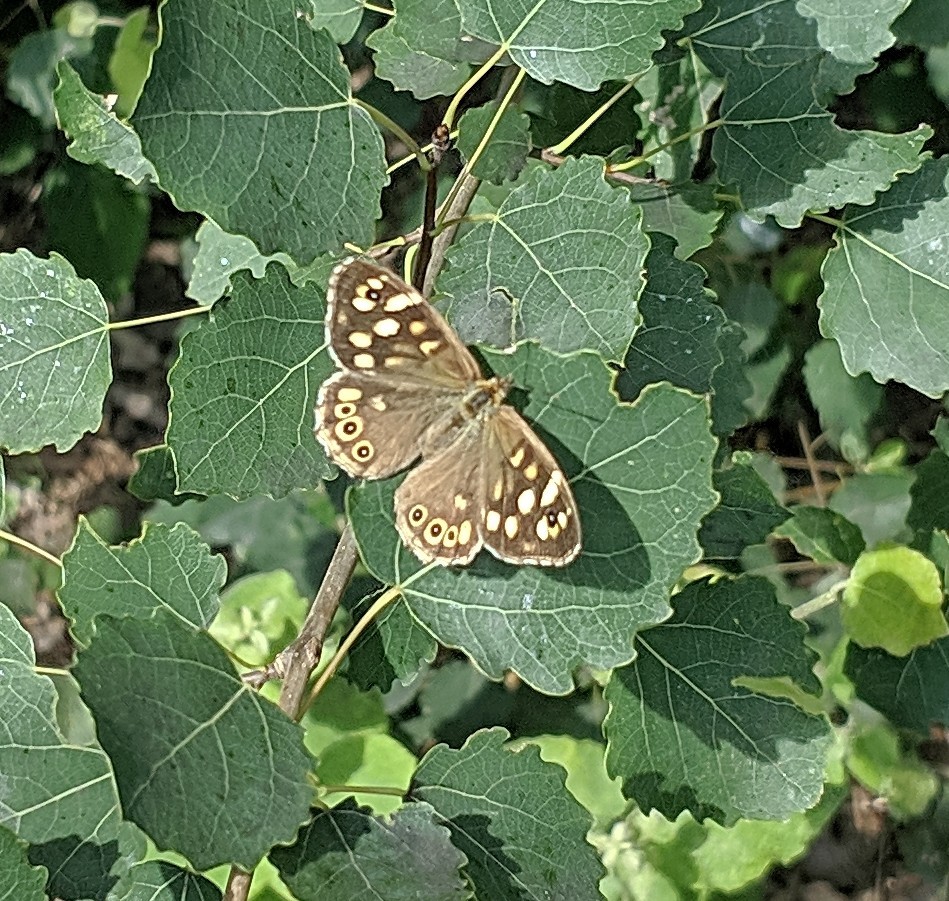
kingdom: Animalia
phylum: Arthropoda
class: Insecta
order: Lepidoptera
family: Nymphalidae
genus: Pararge
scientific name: Pararge aegeria
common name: Speckled wood
